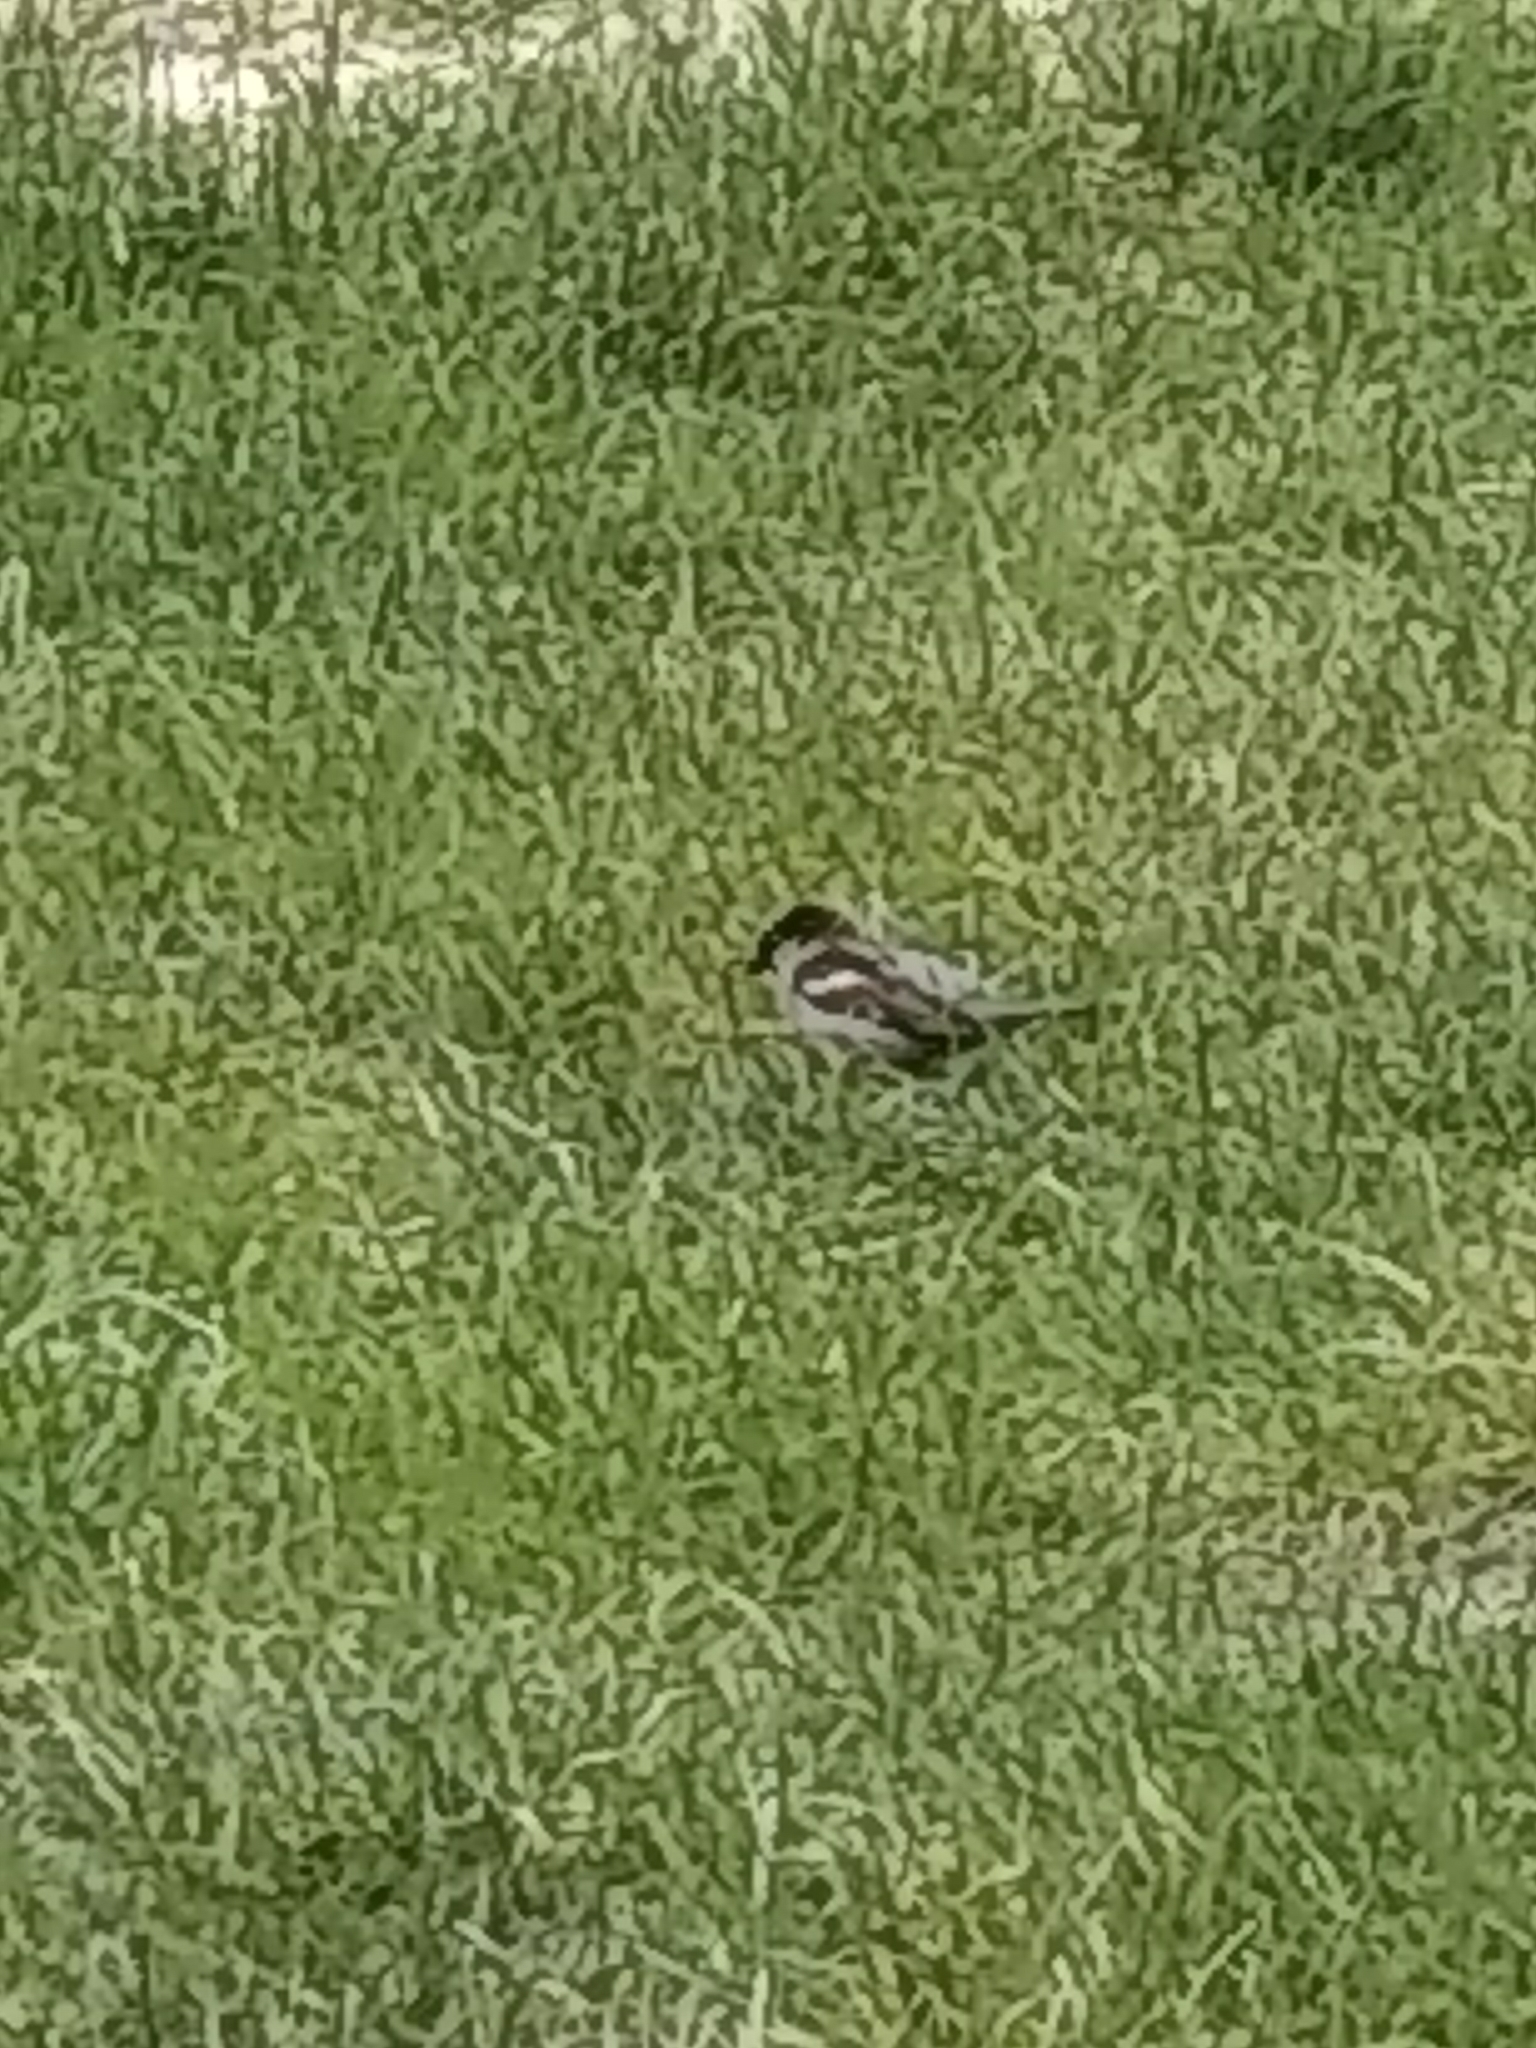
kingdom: Animalia
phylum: Chordata
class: Aves
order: Passeriformes
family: Passeridae
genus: Passer
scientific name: Passer domesticus
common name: House sparrow
